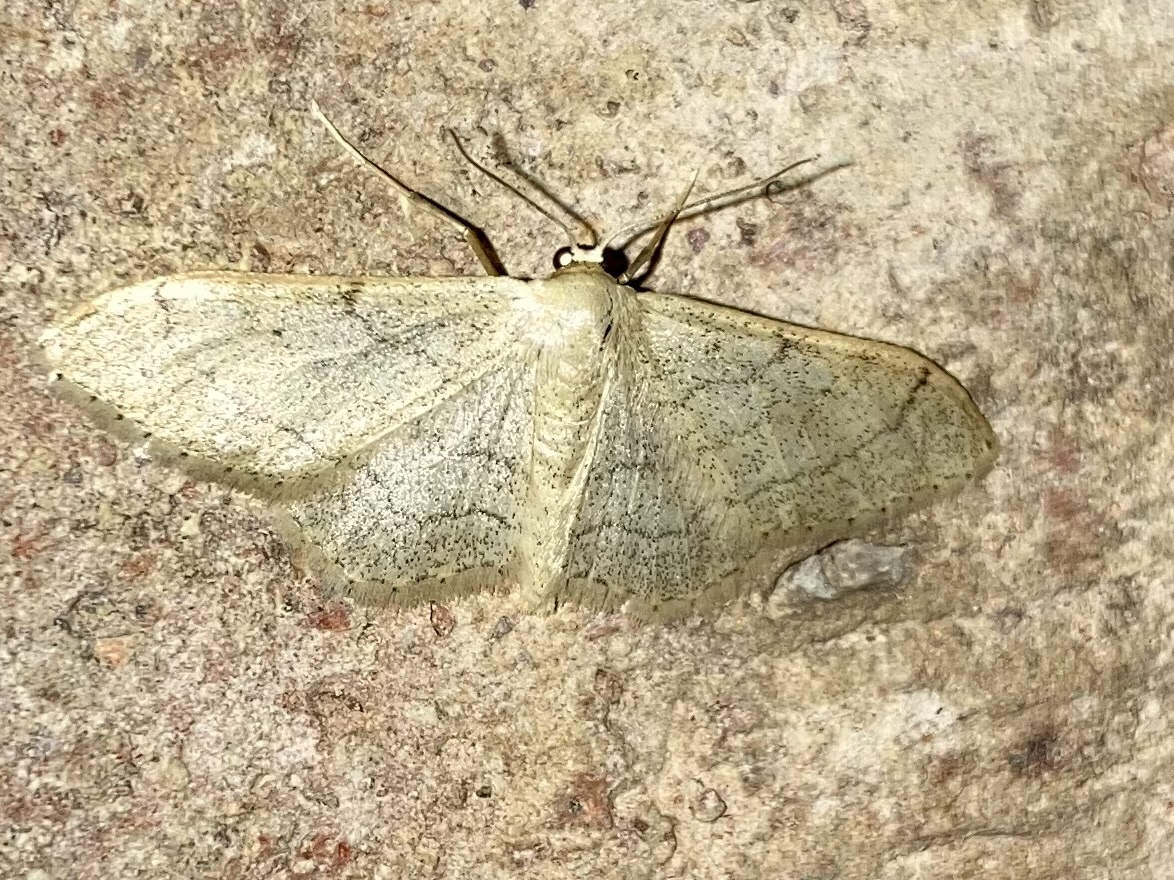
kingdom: Animalia
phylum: Arthropoda
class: Insecta
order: Lepidoptera
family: Geometridae
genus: Idaea
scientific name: Idaea aversata
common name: Riband wave
